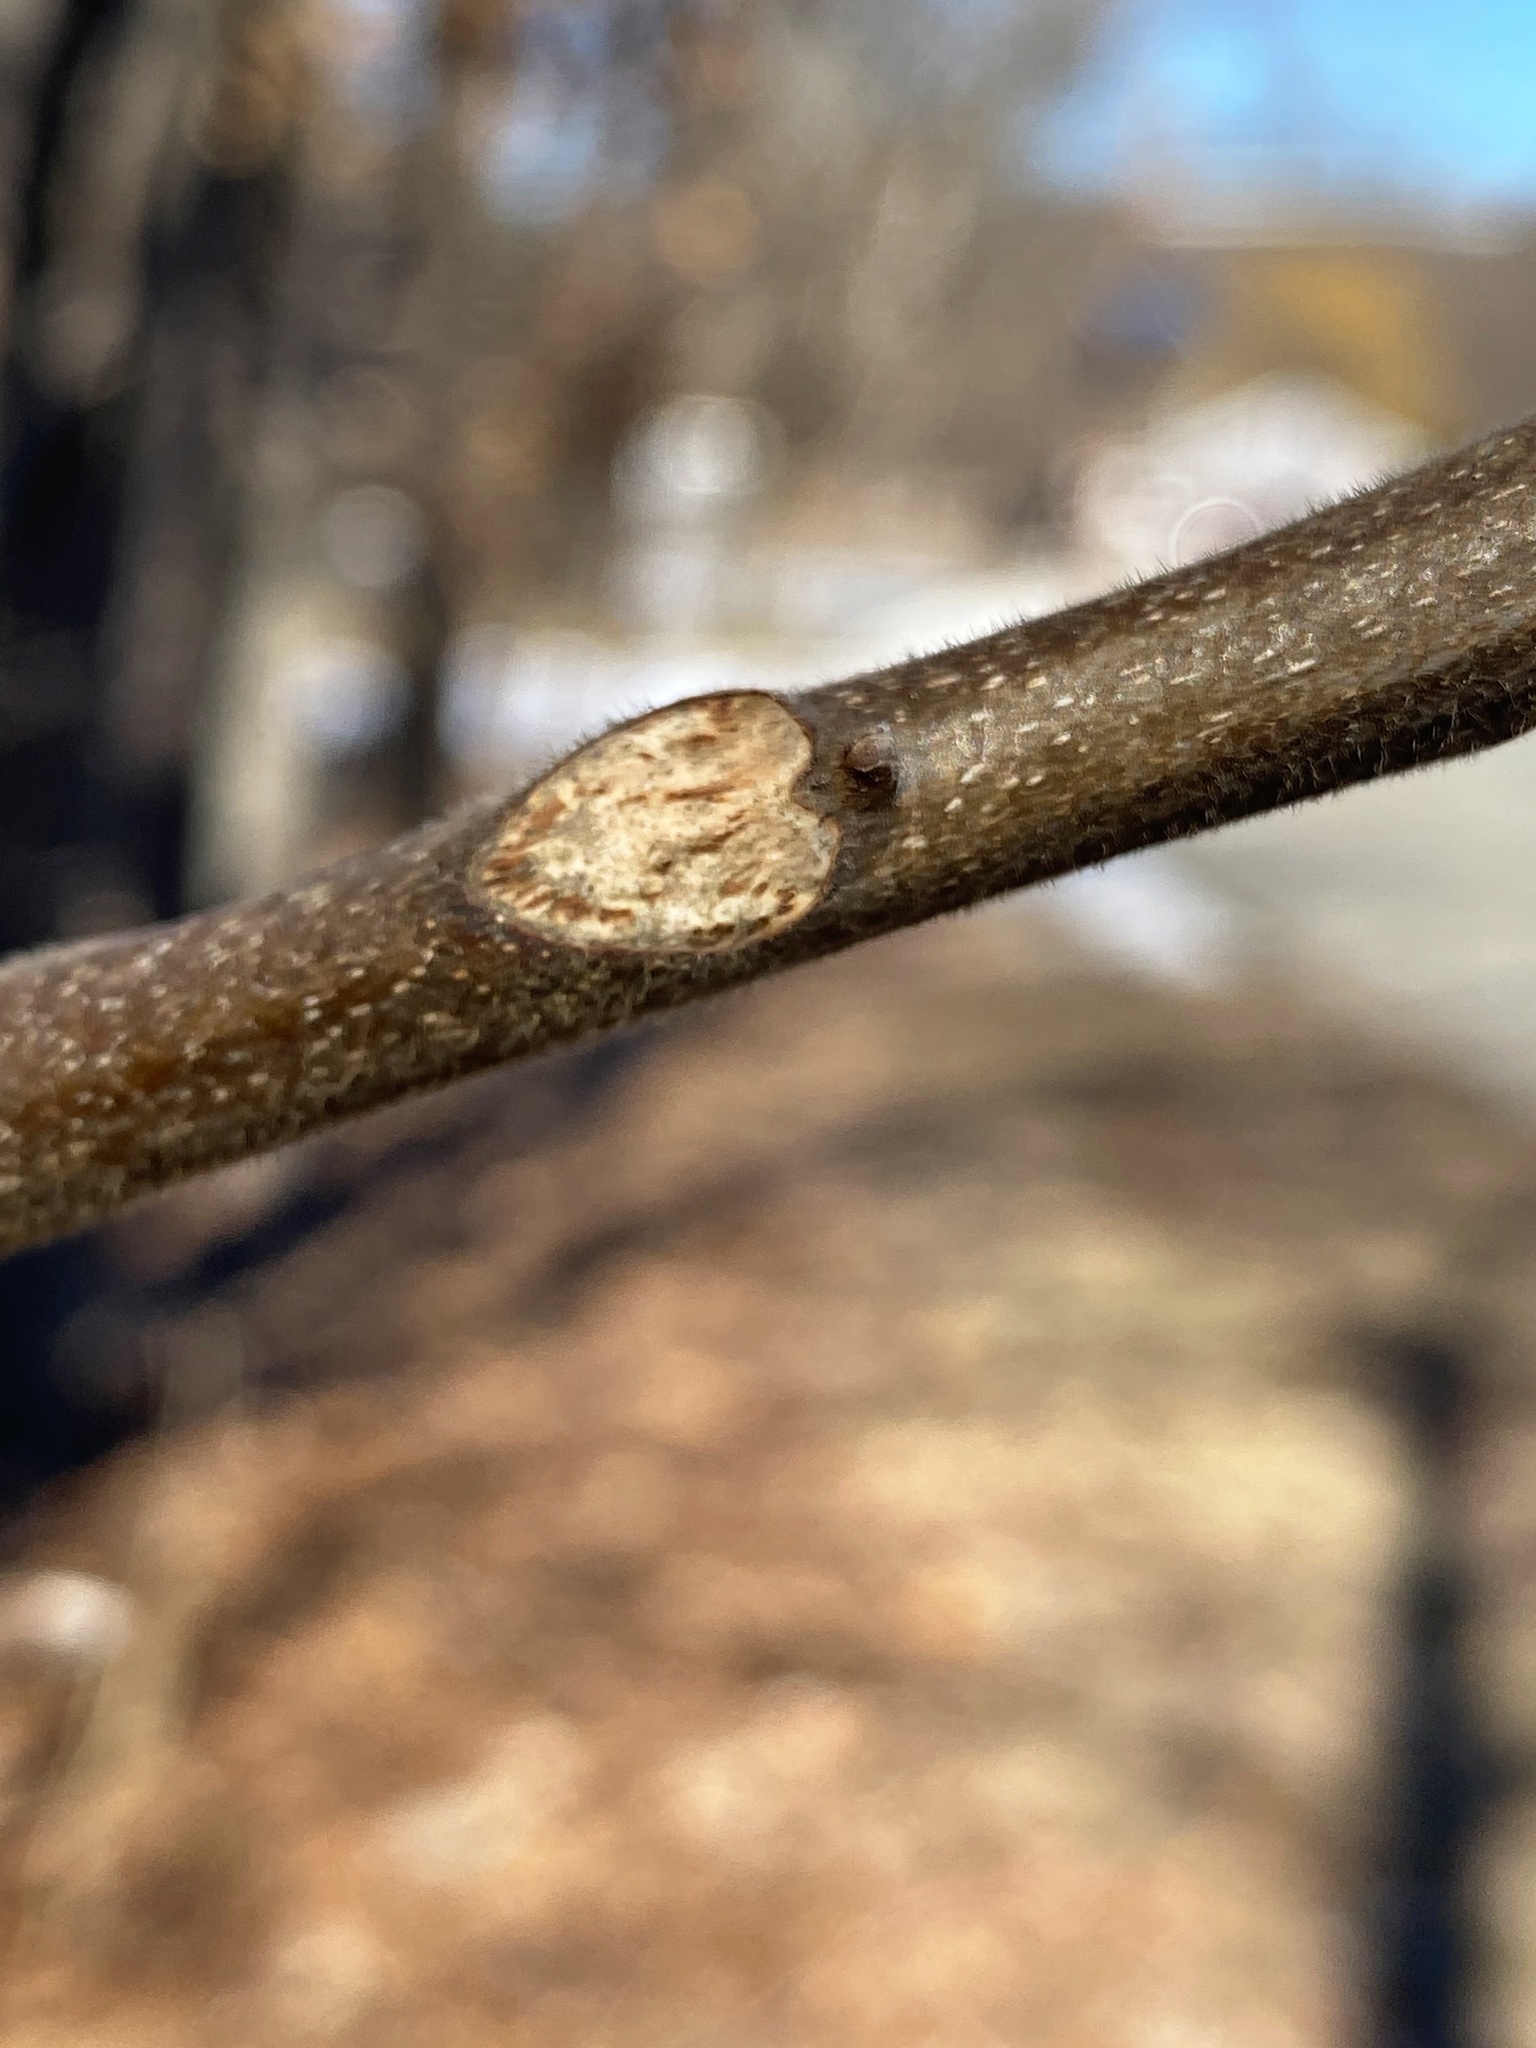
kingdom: Plantae
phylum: Tracheophyta
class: Magnoliopsida
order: Fagales
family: Juglandaceae
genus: Carya
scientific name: Carya alba
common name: Mockernut hickory
